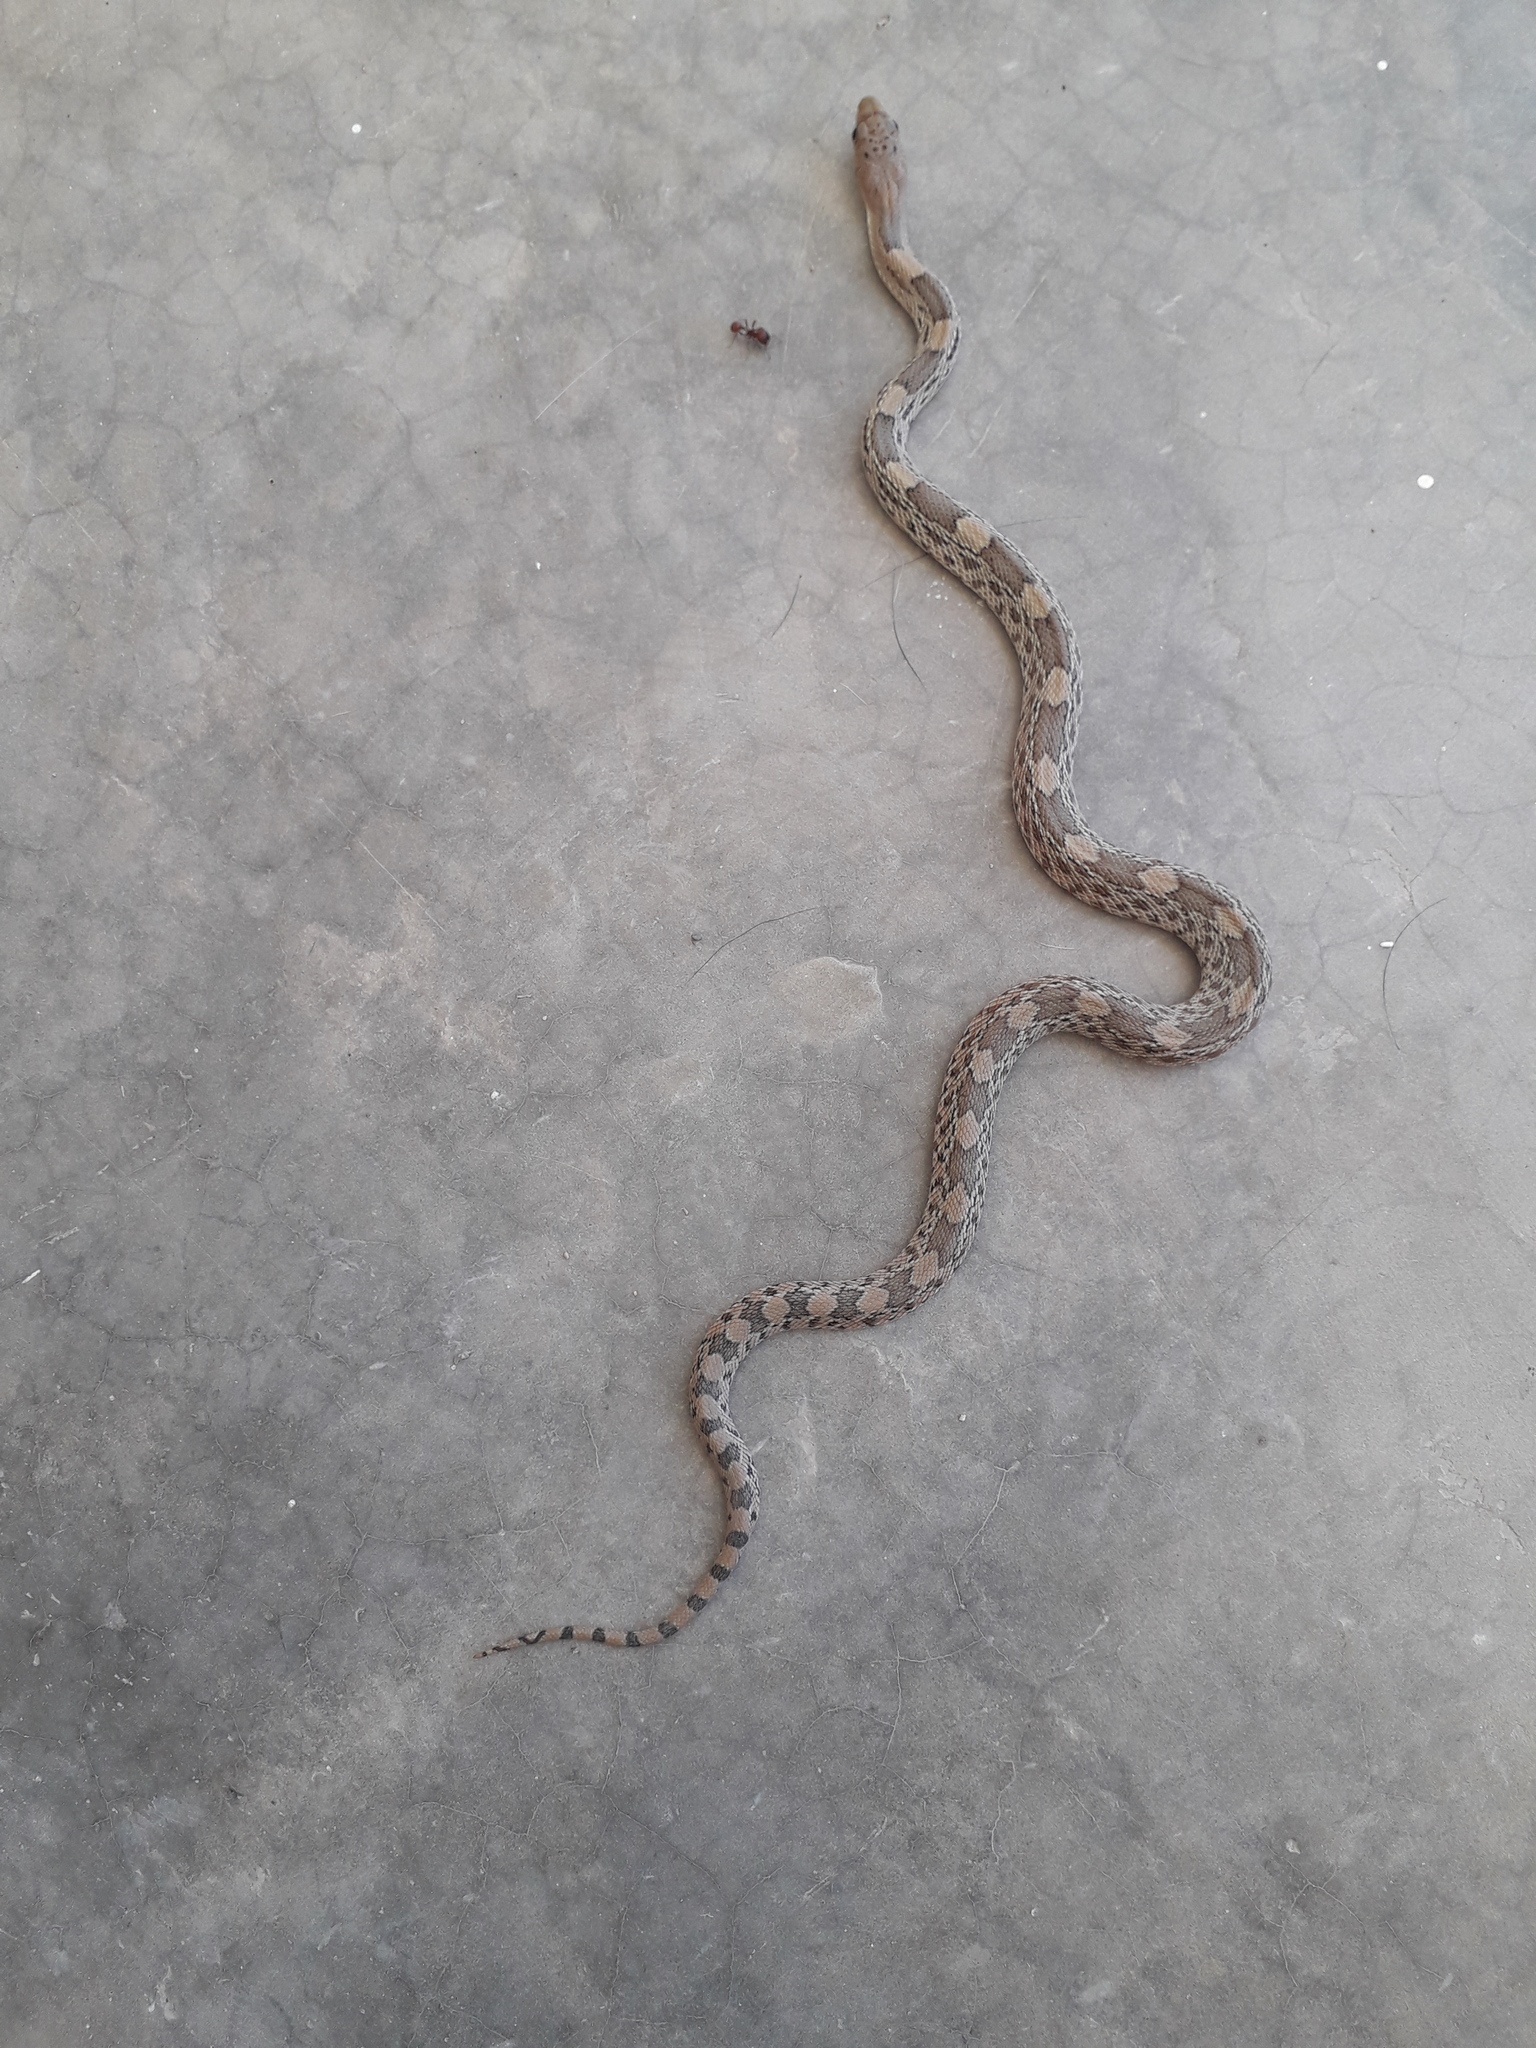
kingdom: Animalia
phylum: Chordata
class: Squamata
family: Colubridae
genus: Pituophis
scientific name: Pituophis deppei
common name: Mexican bull snake
